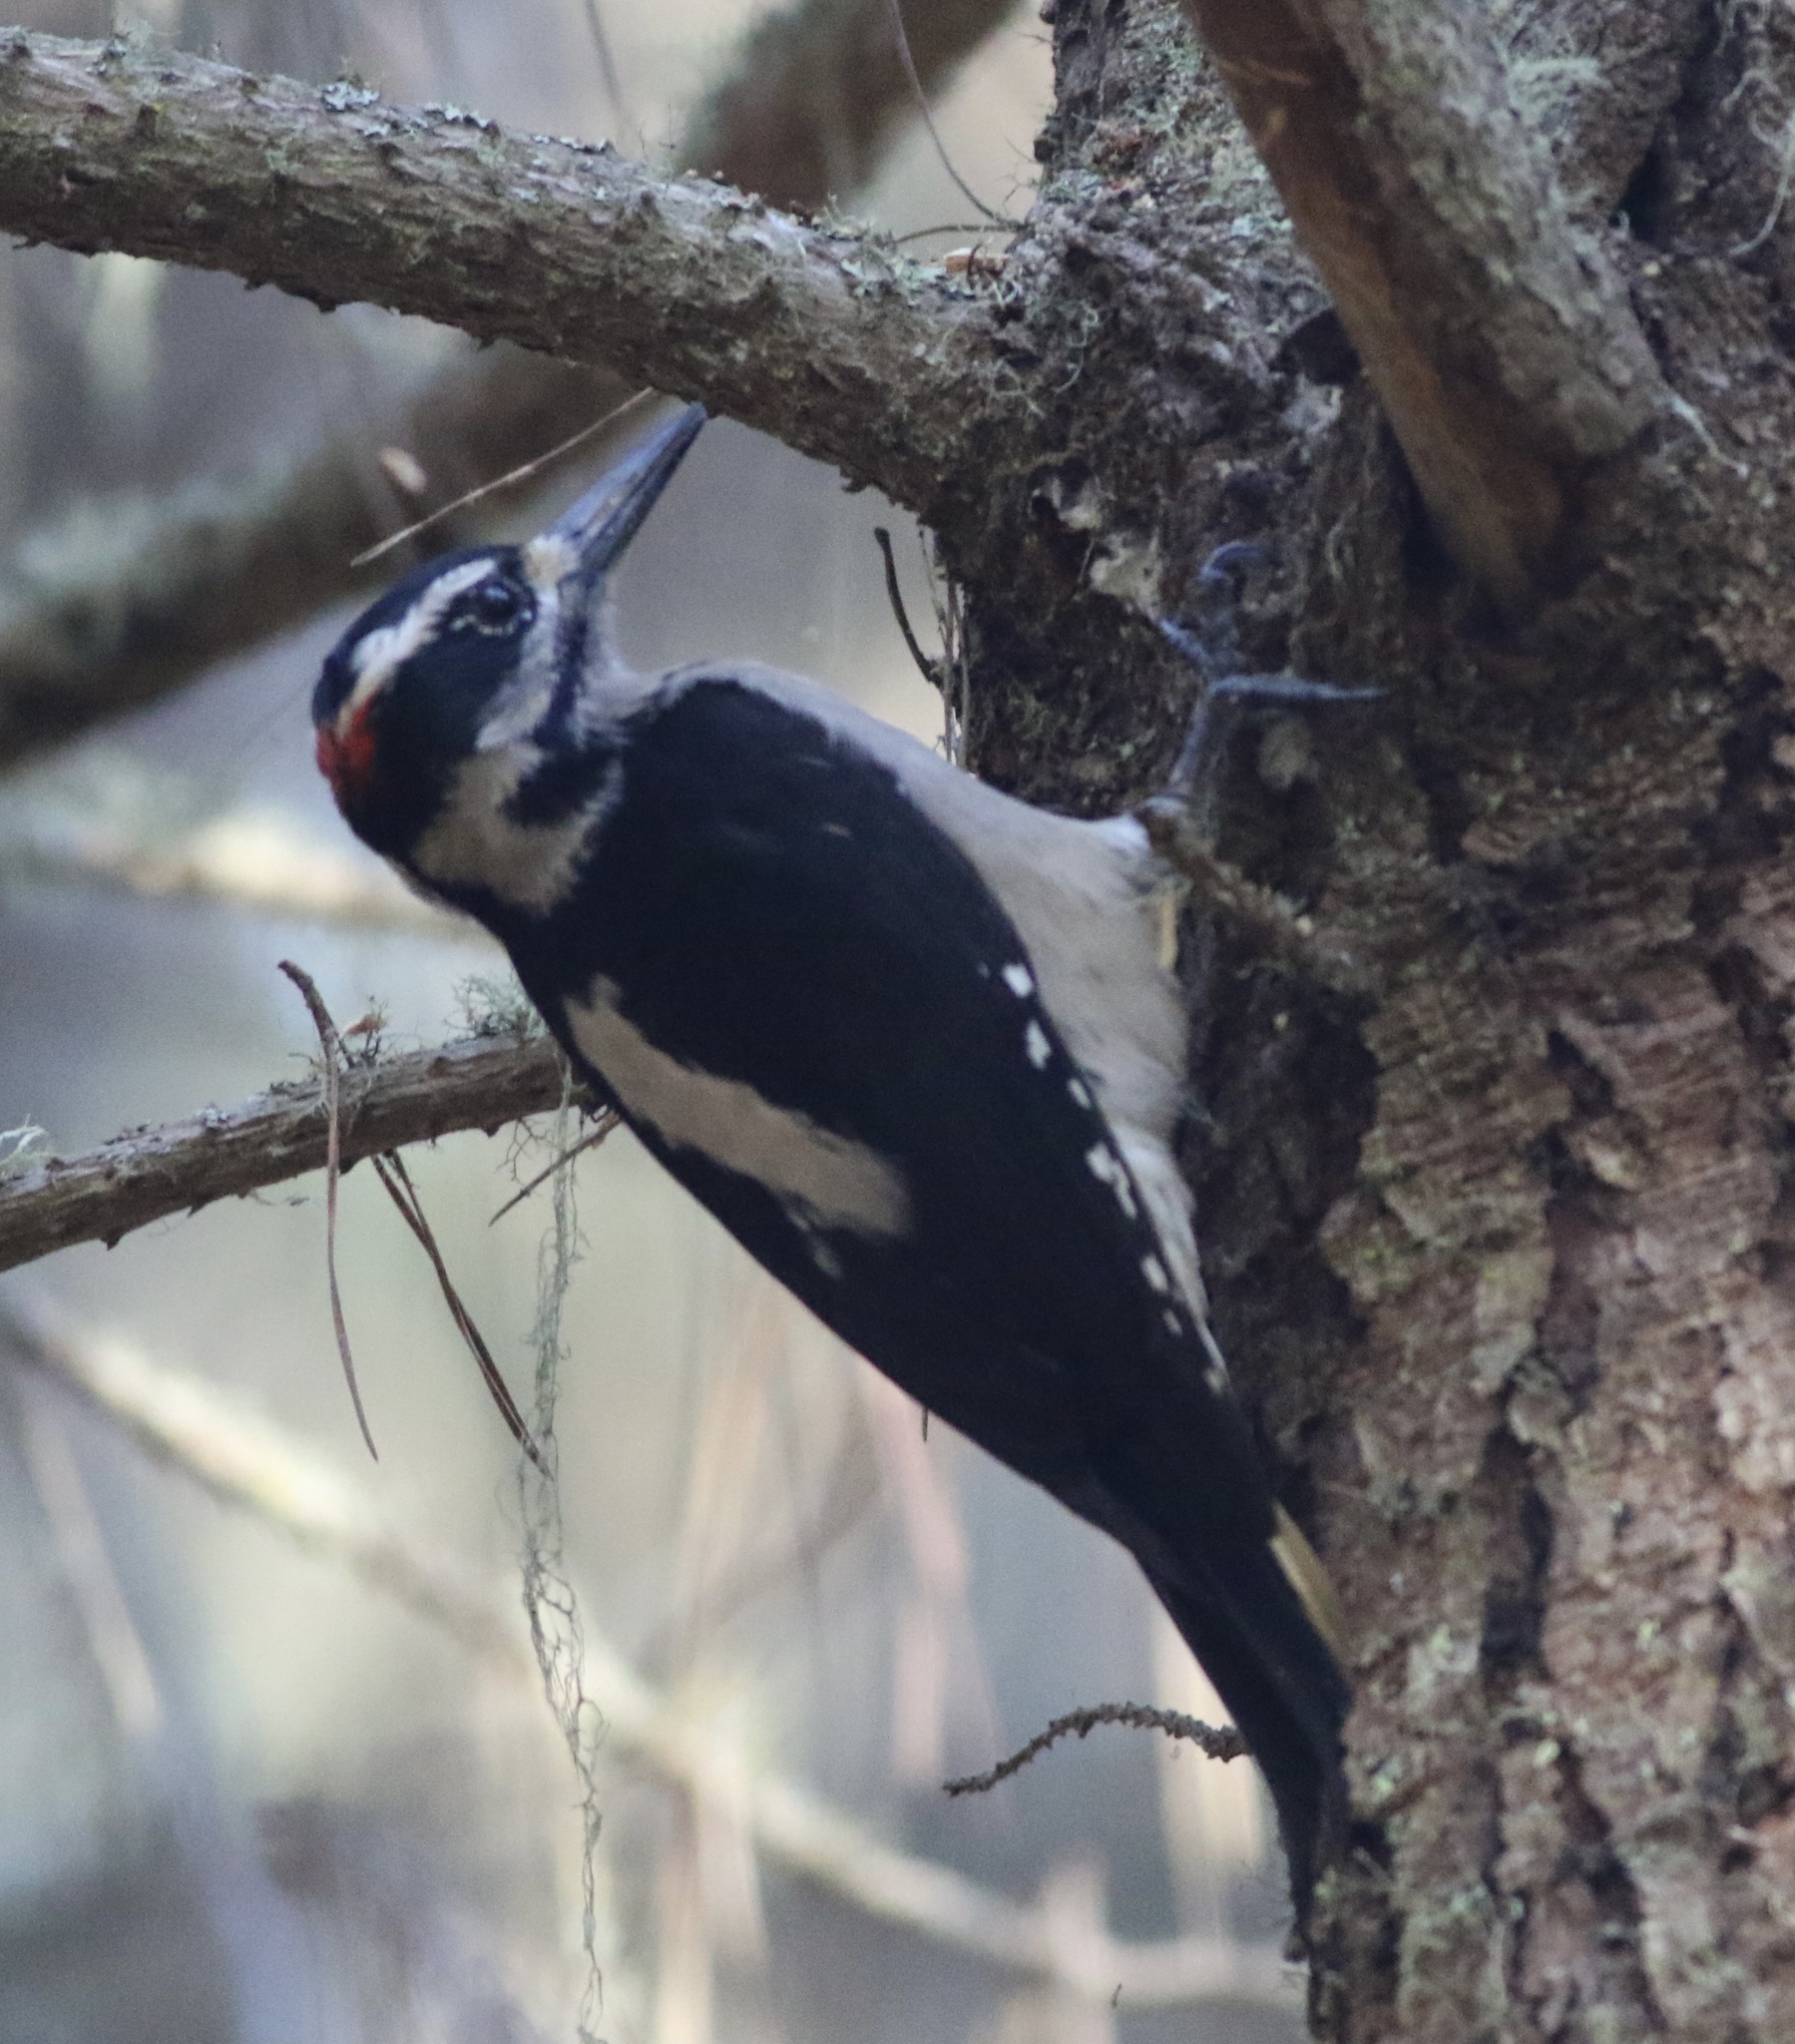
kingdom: Animalia
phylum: Chordata
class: Aves
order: Piciformes
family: Picidae
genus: Leuconotopicus
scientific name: Leuconotopicus villosus
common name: Hairy woodpecker
